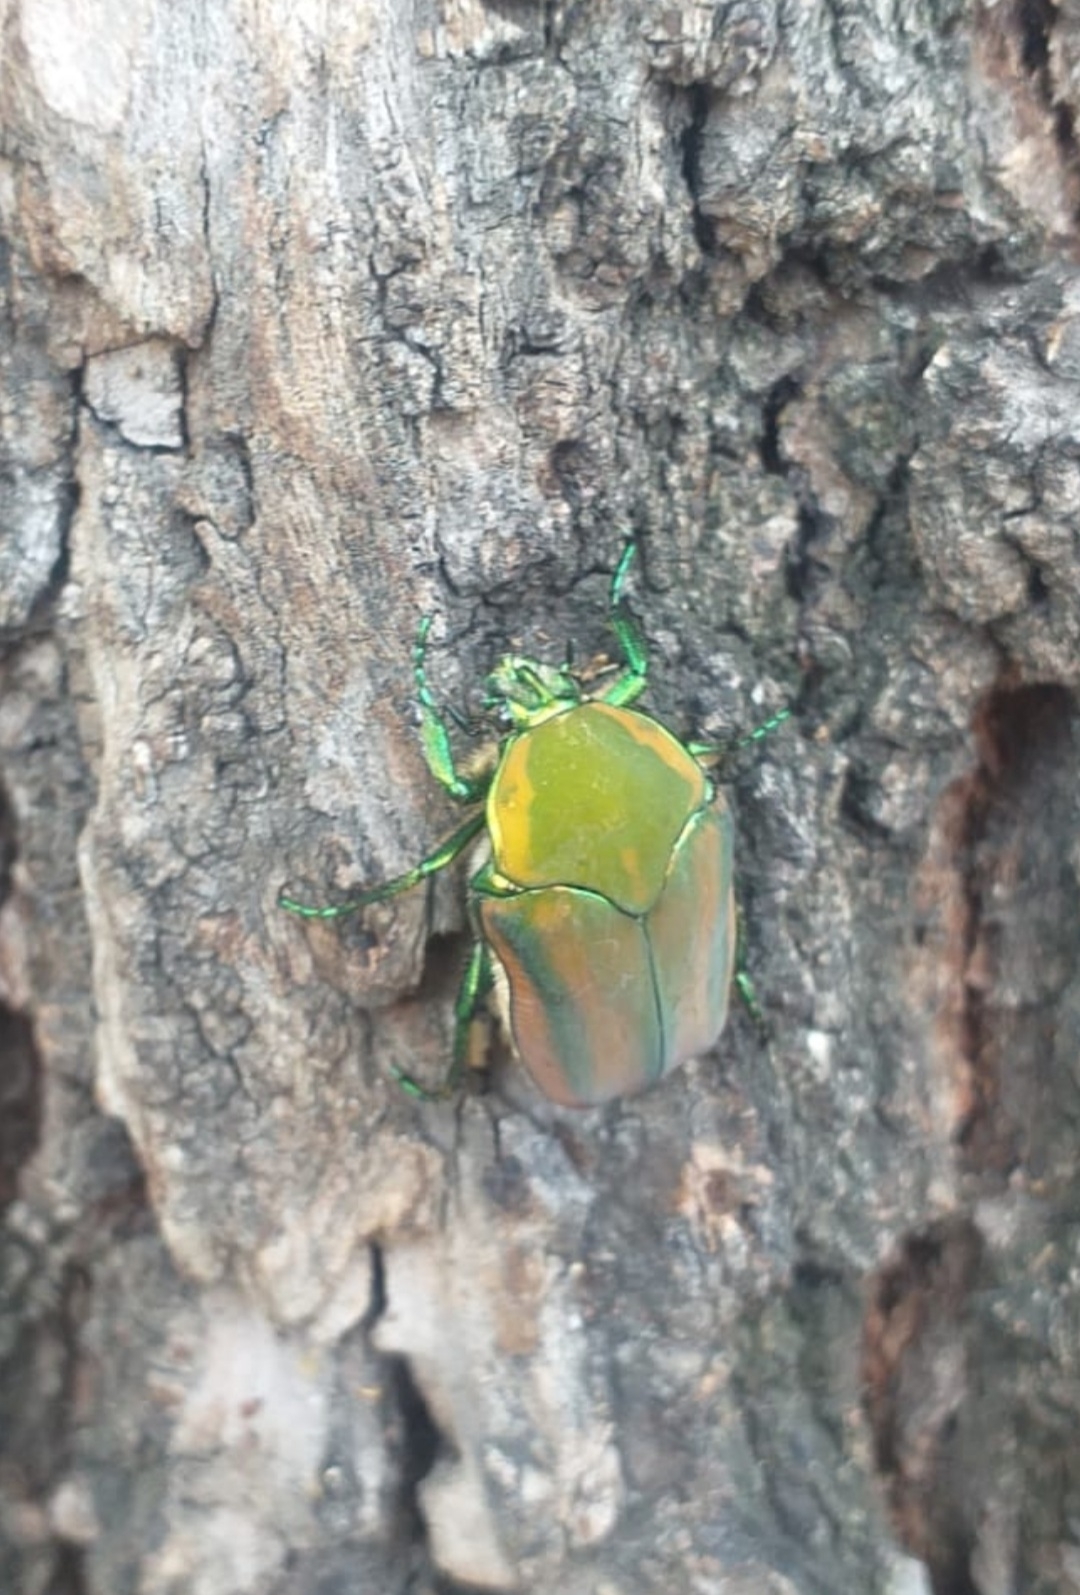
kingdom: Animalia
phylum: Arthropoda
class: Insecta
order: Coleoptera
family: Scarabaeidae
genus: Cotinis
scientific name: Cotinis mutabilis
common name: Figeater beetle
